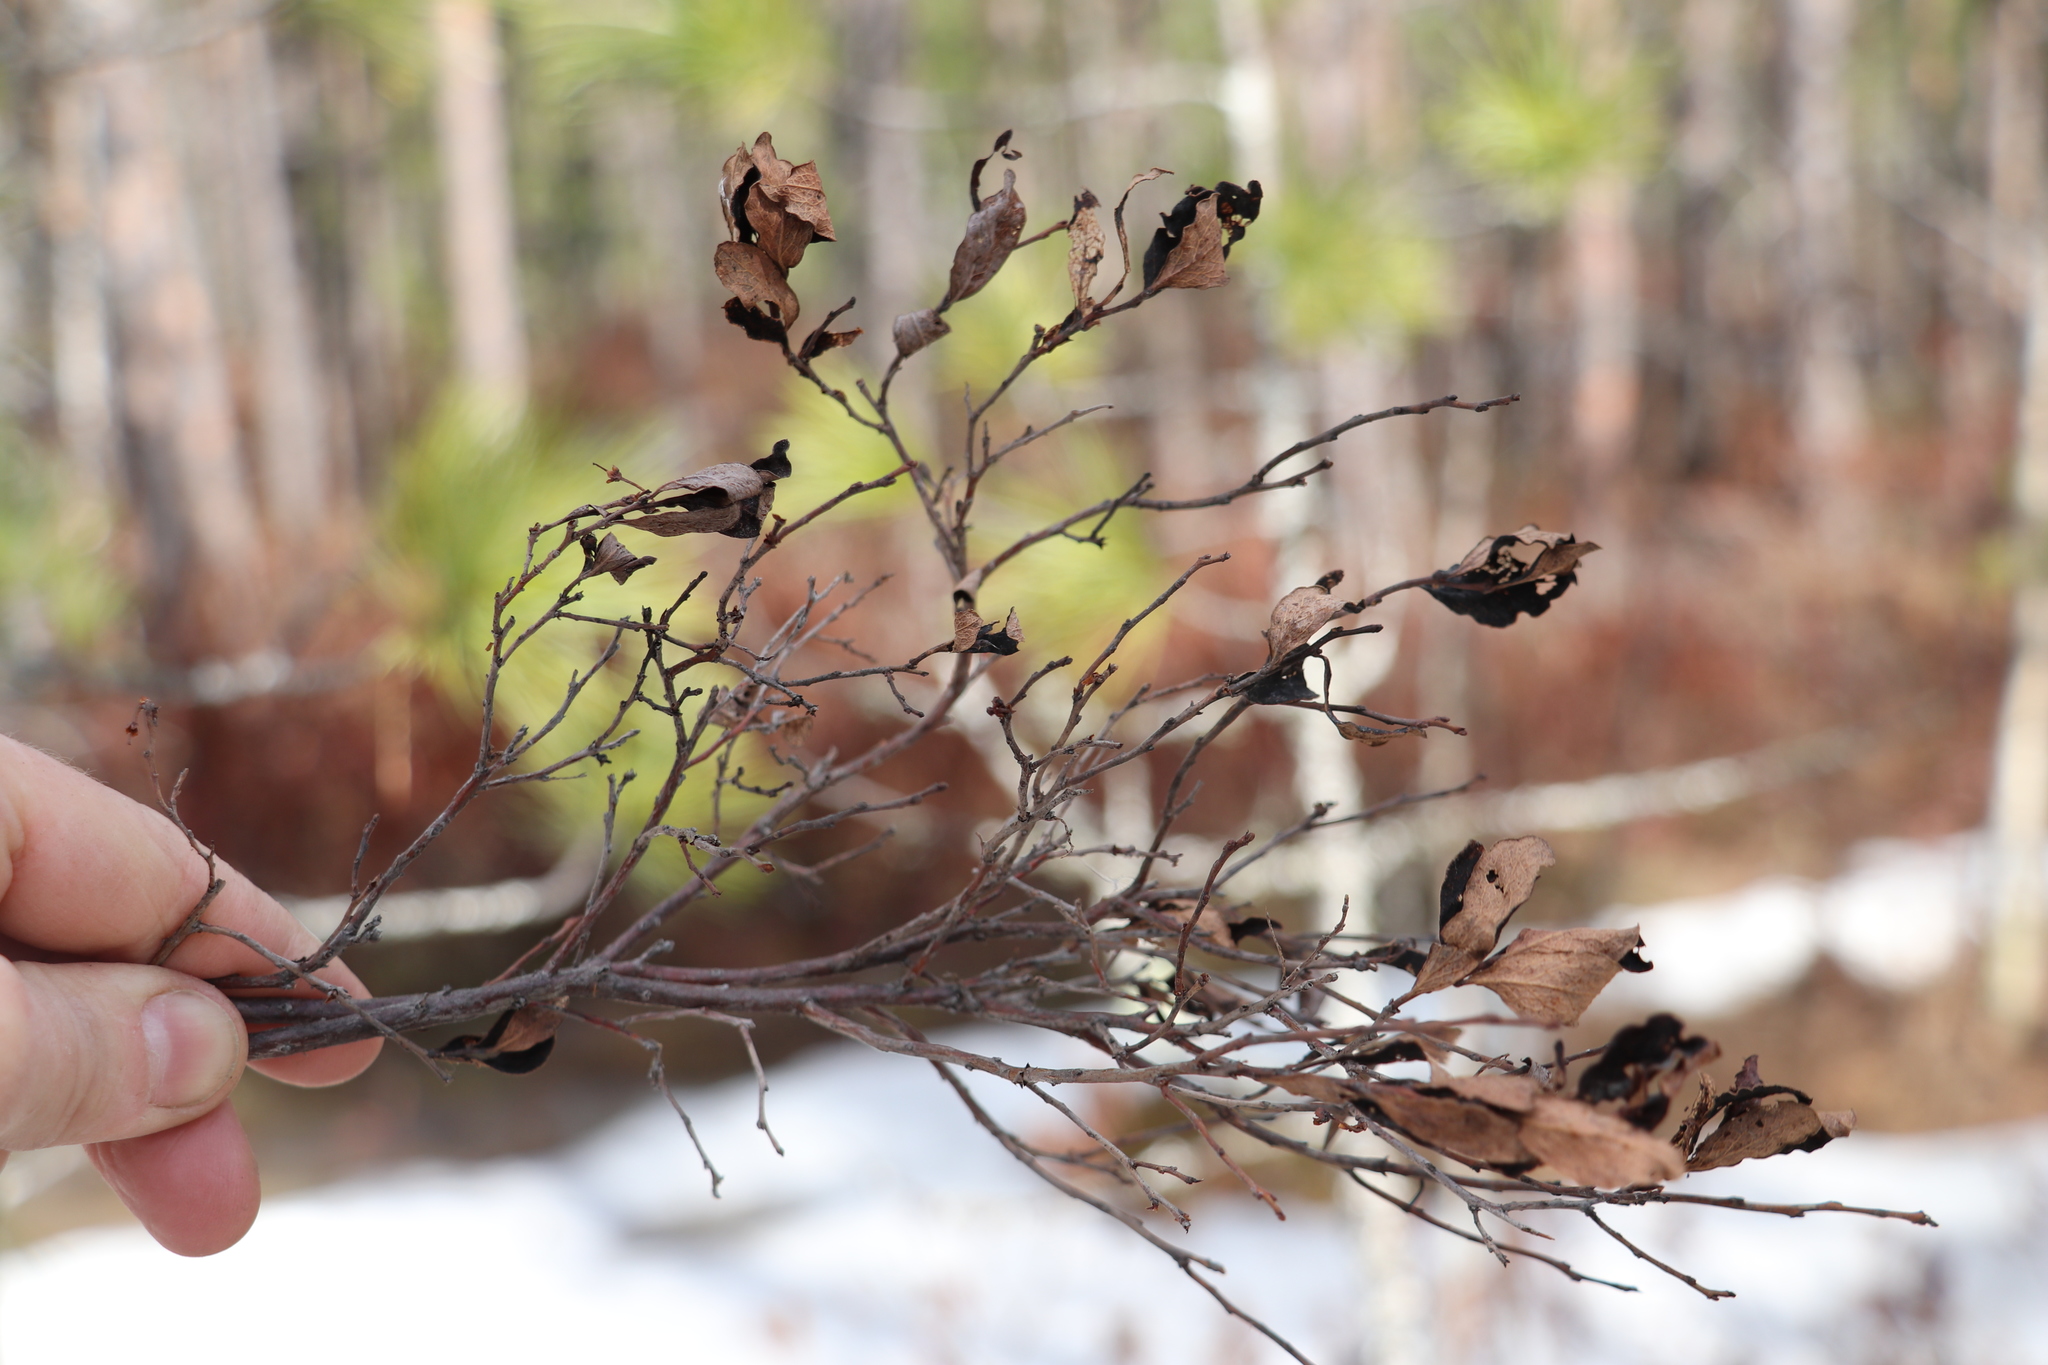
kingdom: Plantae
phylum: Tracheophyta
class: Magnoliopsida
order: Ericales
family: Ericaceae
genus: Vaccinium
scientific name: Vaccinium uliginosum
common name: Bog bilberry
